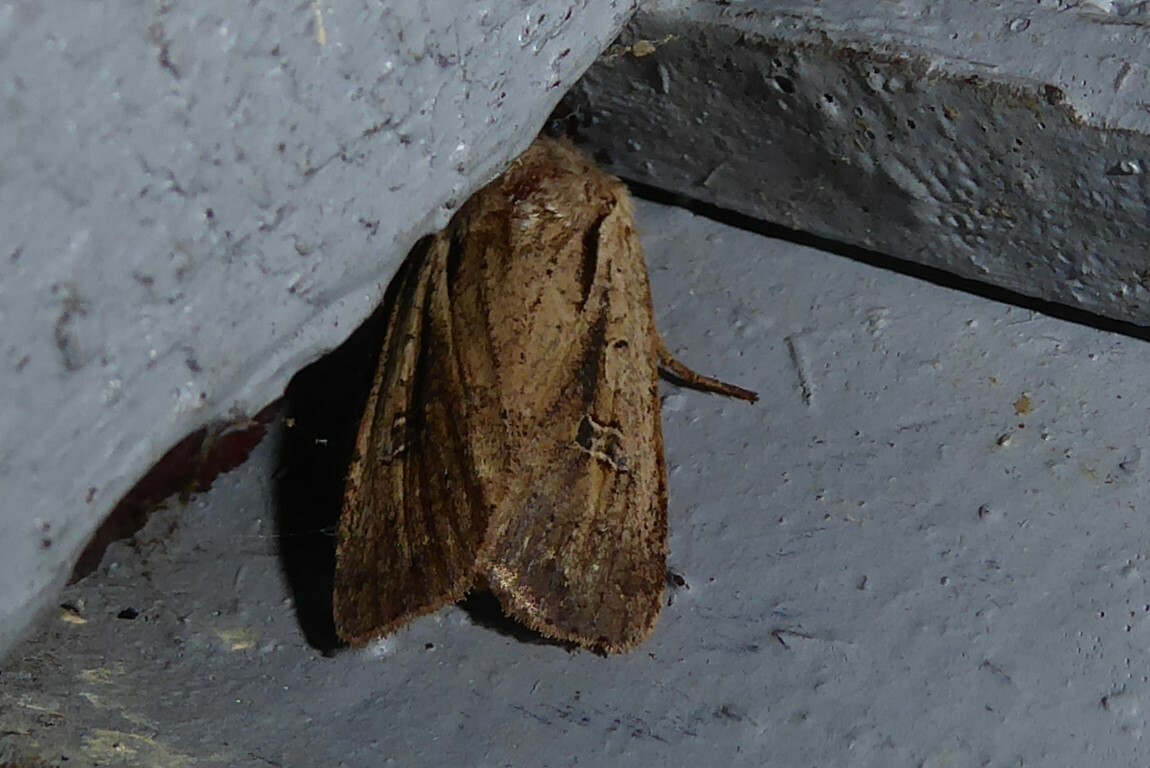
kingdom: Animalia
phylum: Arthropoda
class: Insecta
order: Lepidoptera
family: Noctuidae
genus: Ichneutica
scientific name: Ichneutica atristriga
